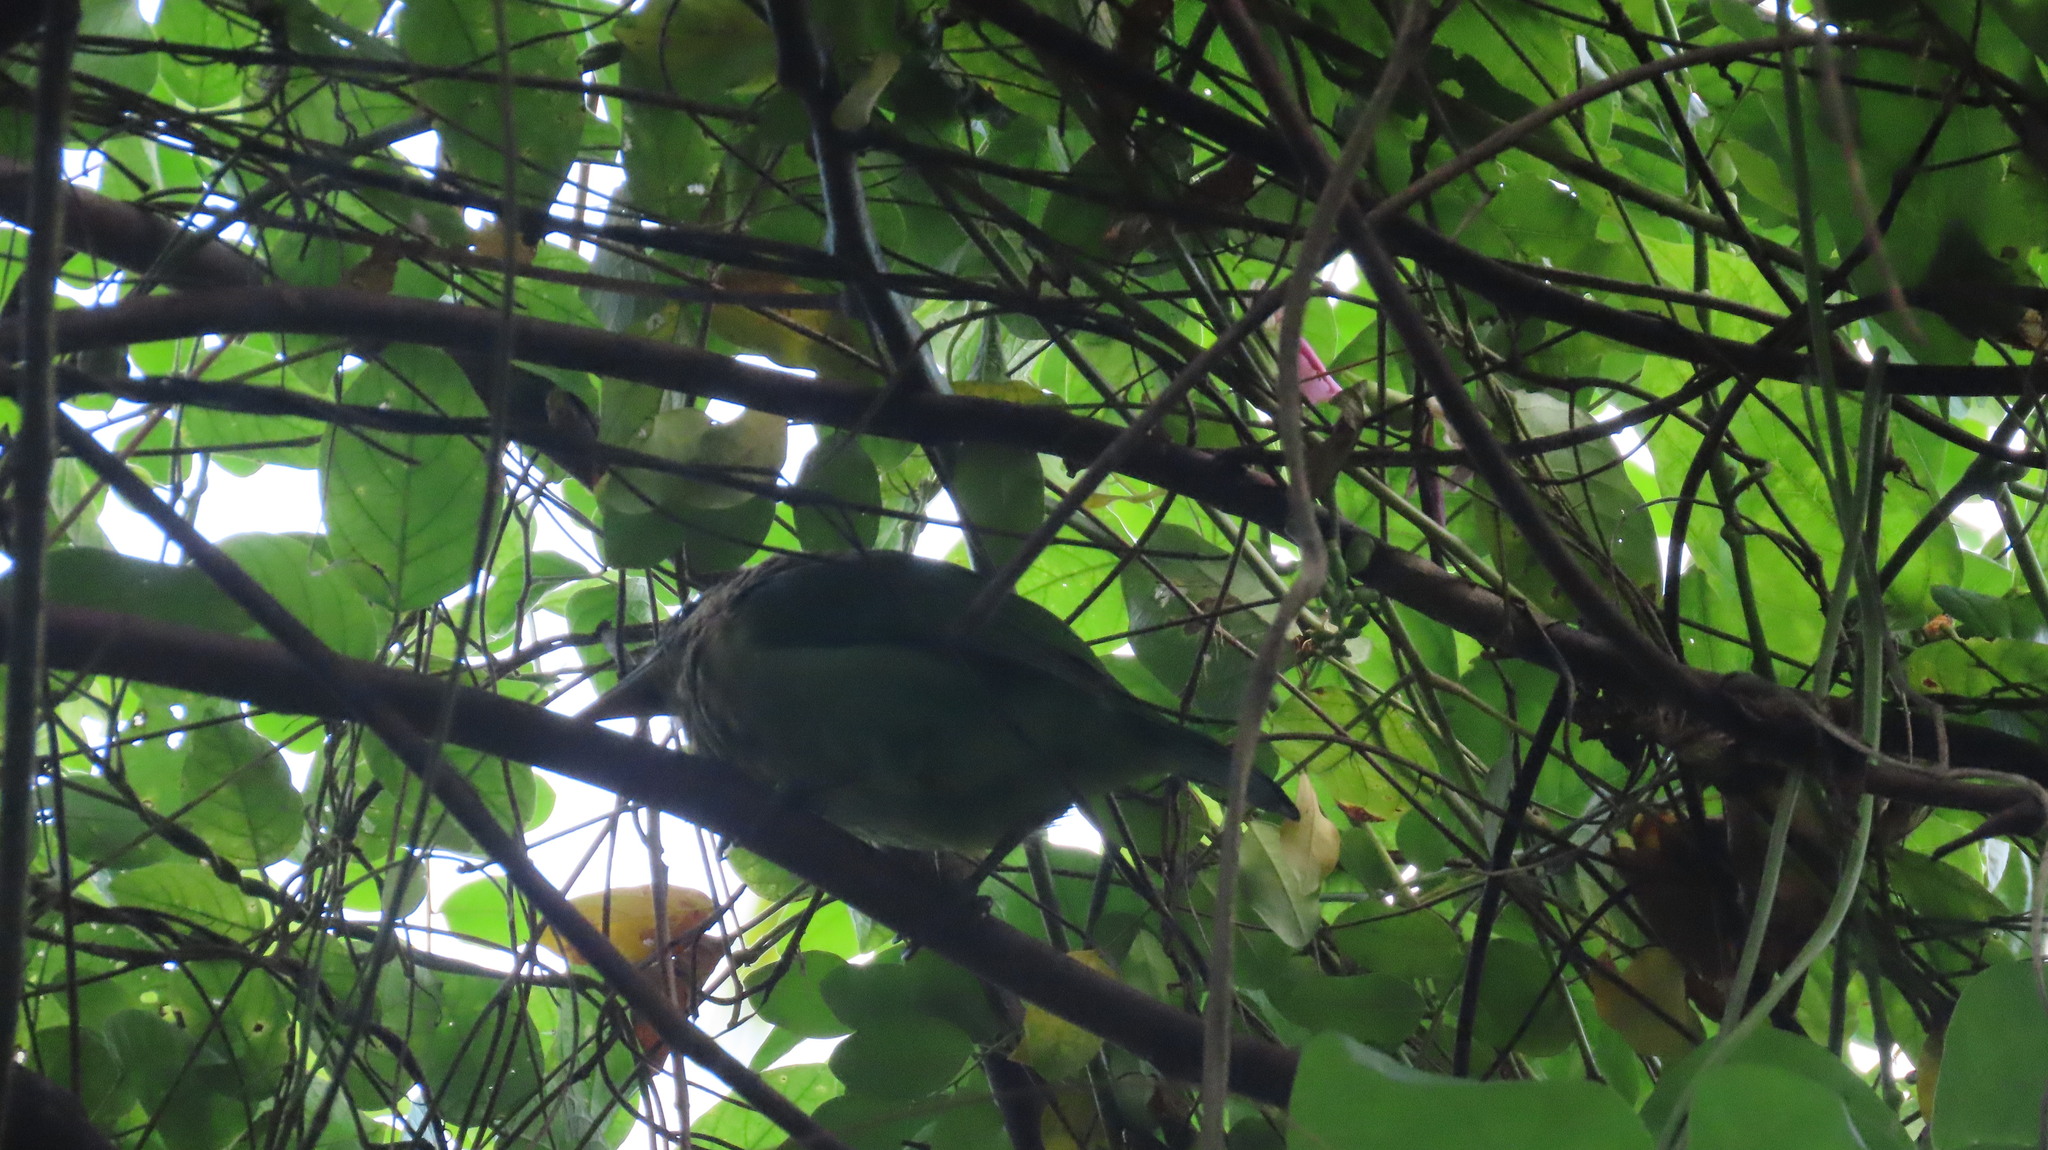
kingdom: Animalia
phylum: Chordata
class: Aves
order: Piciformes
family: Megalaimidae
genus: Psilopogon
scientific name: Psilopogon viridis
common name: White-cheeked barbet
